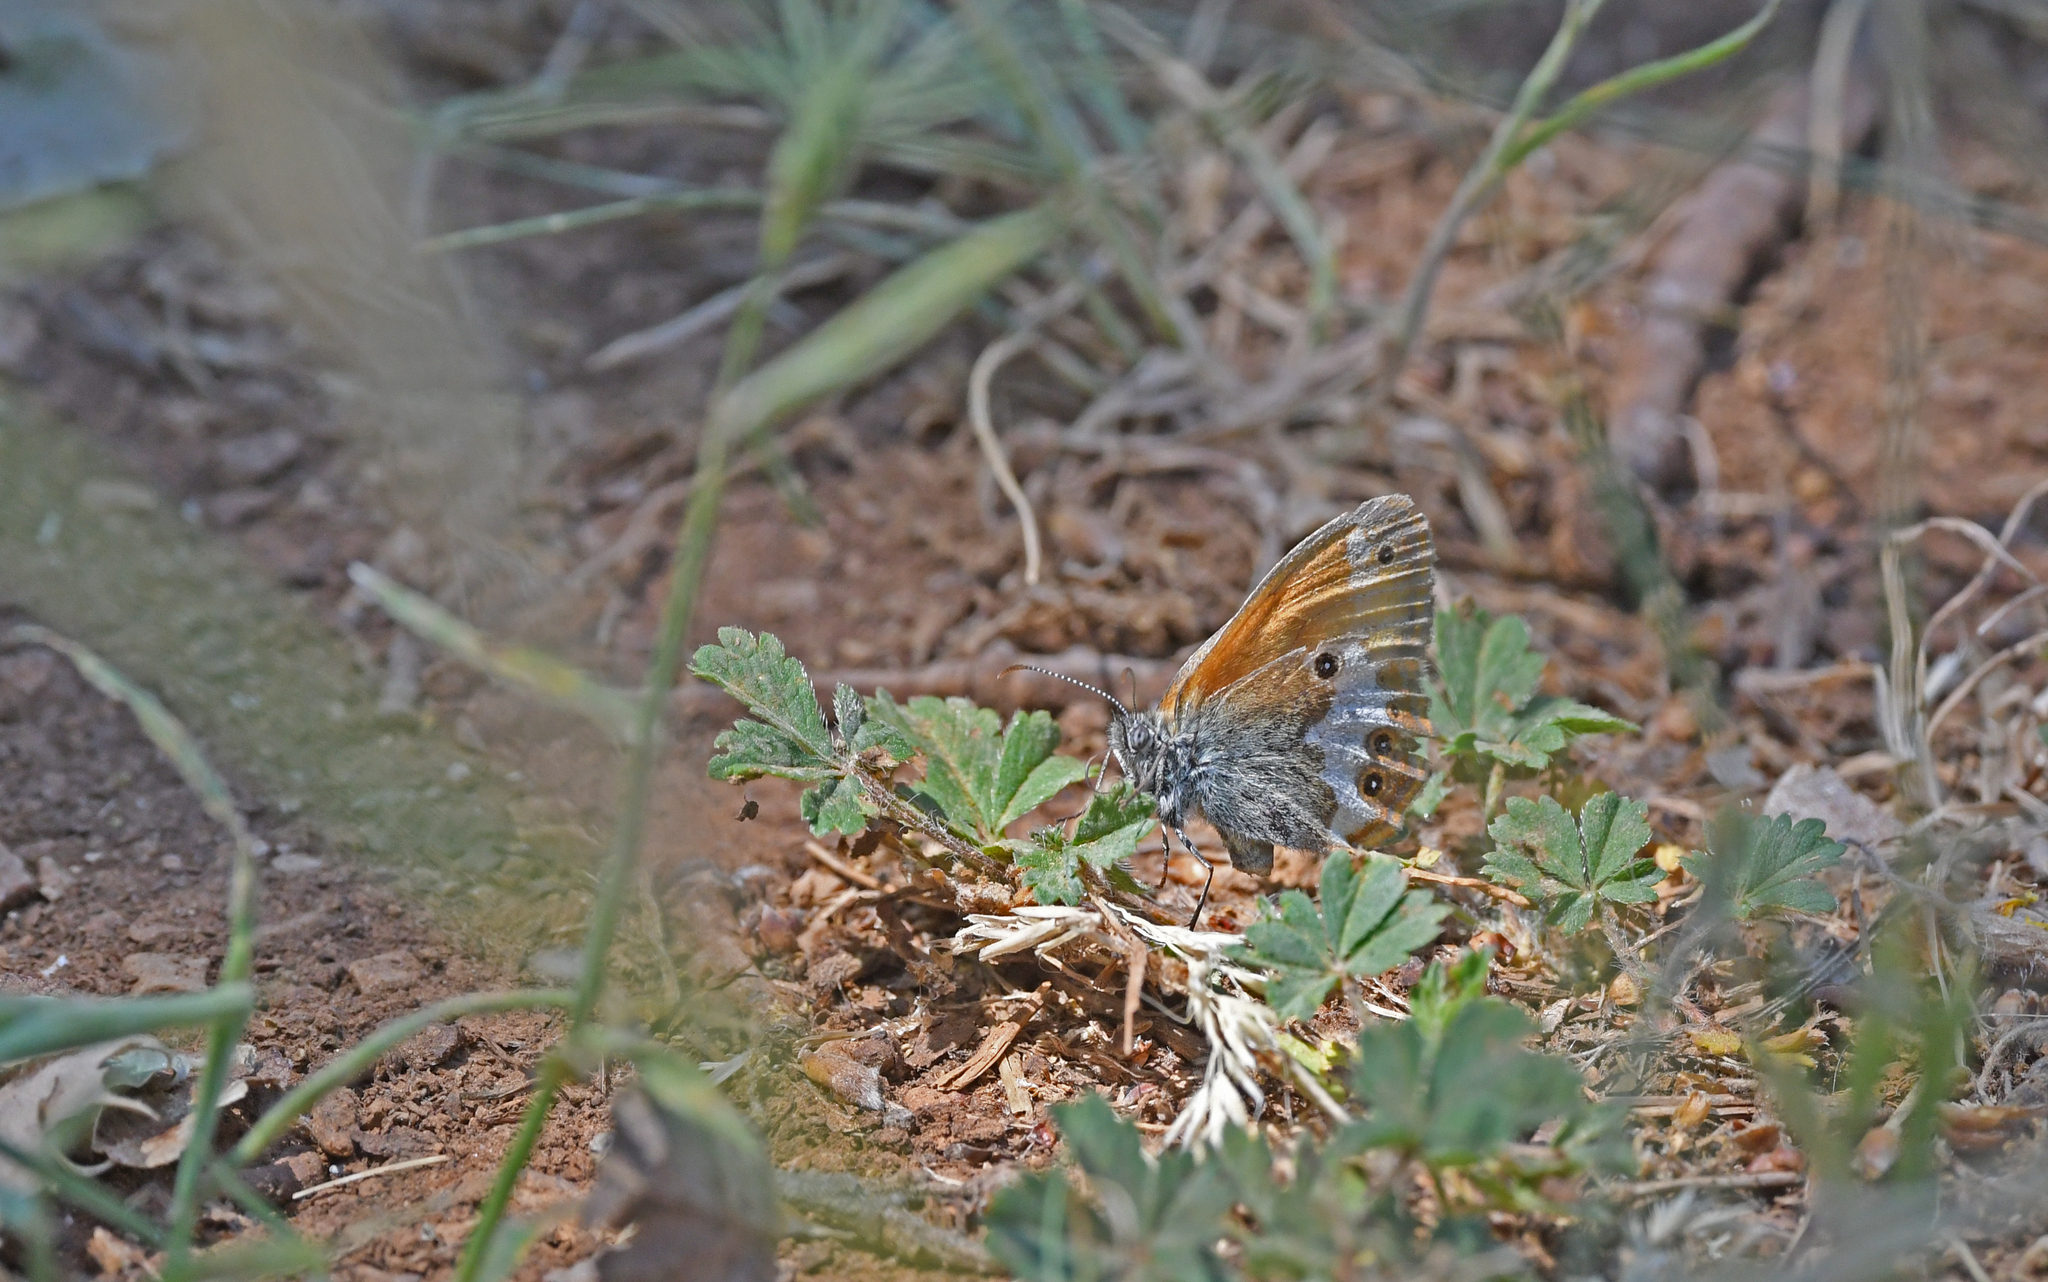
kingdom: Animalia
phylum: Arthropoda
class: Insecta
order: Lepidoptera
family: Nymphalidae
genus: Coenonympha
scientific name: Coenonympha arcania
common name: Pearly heath
